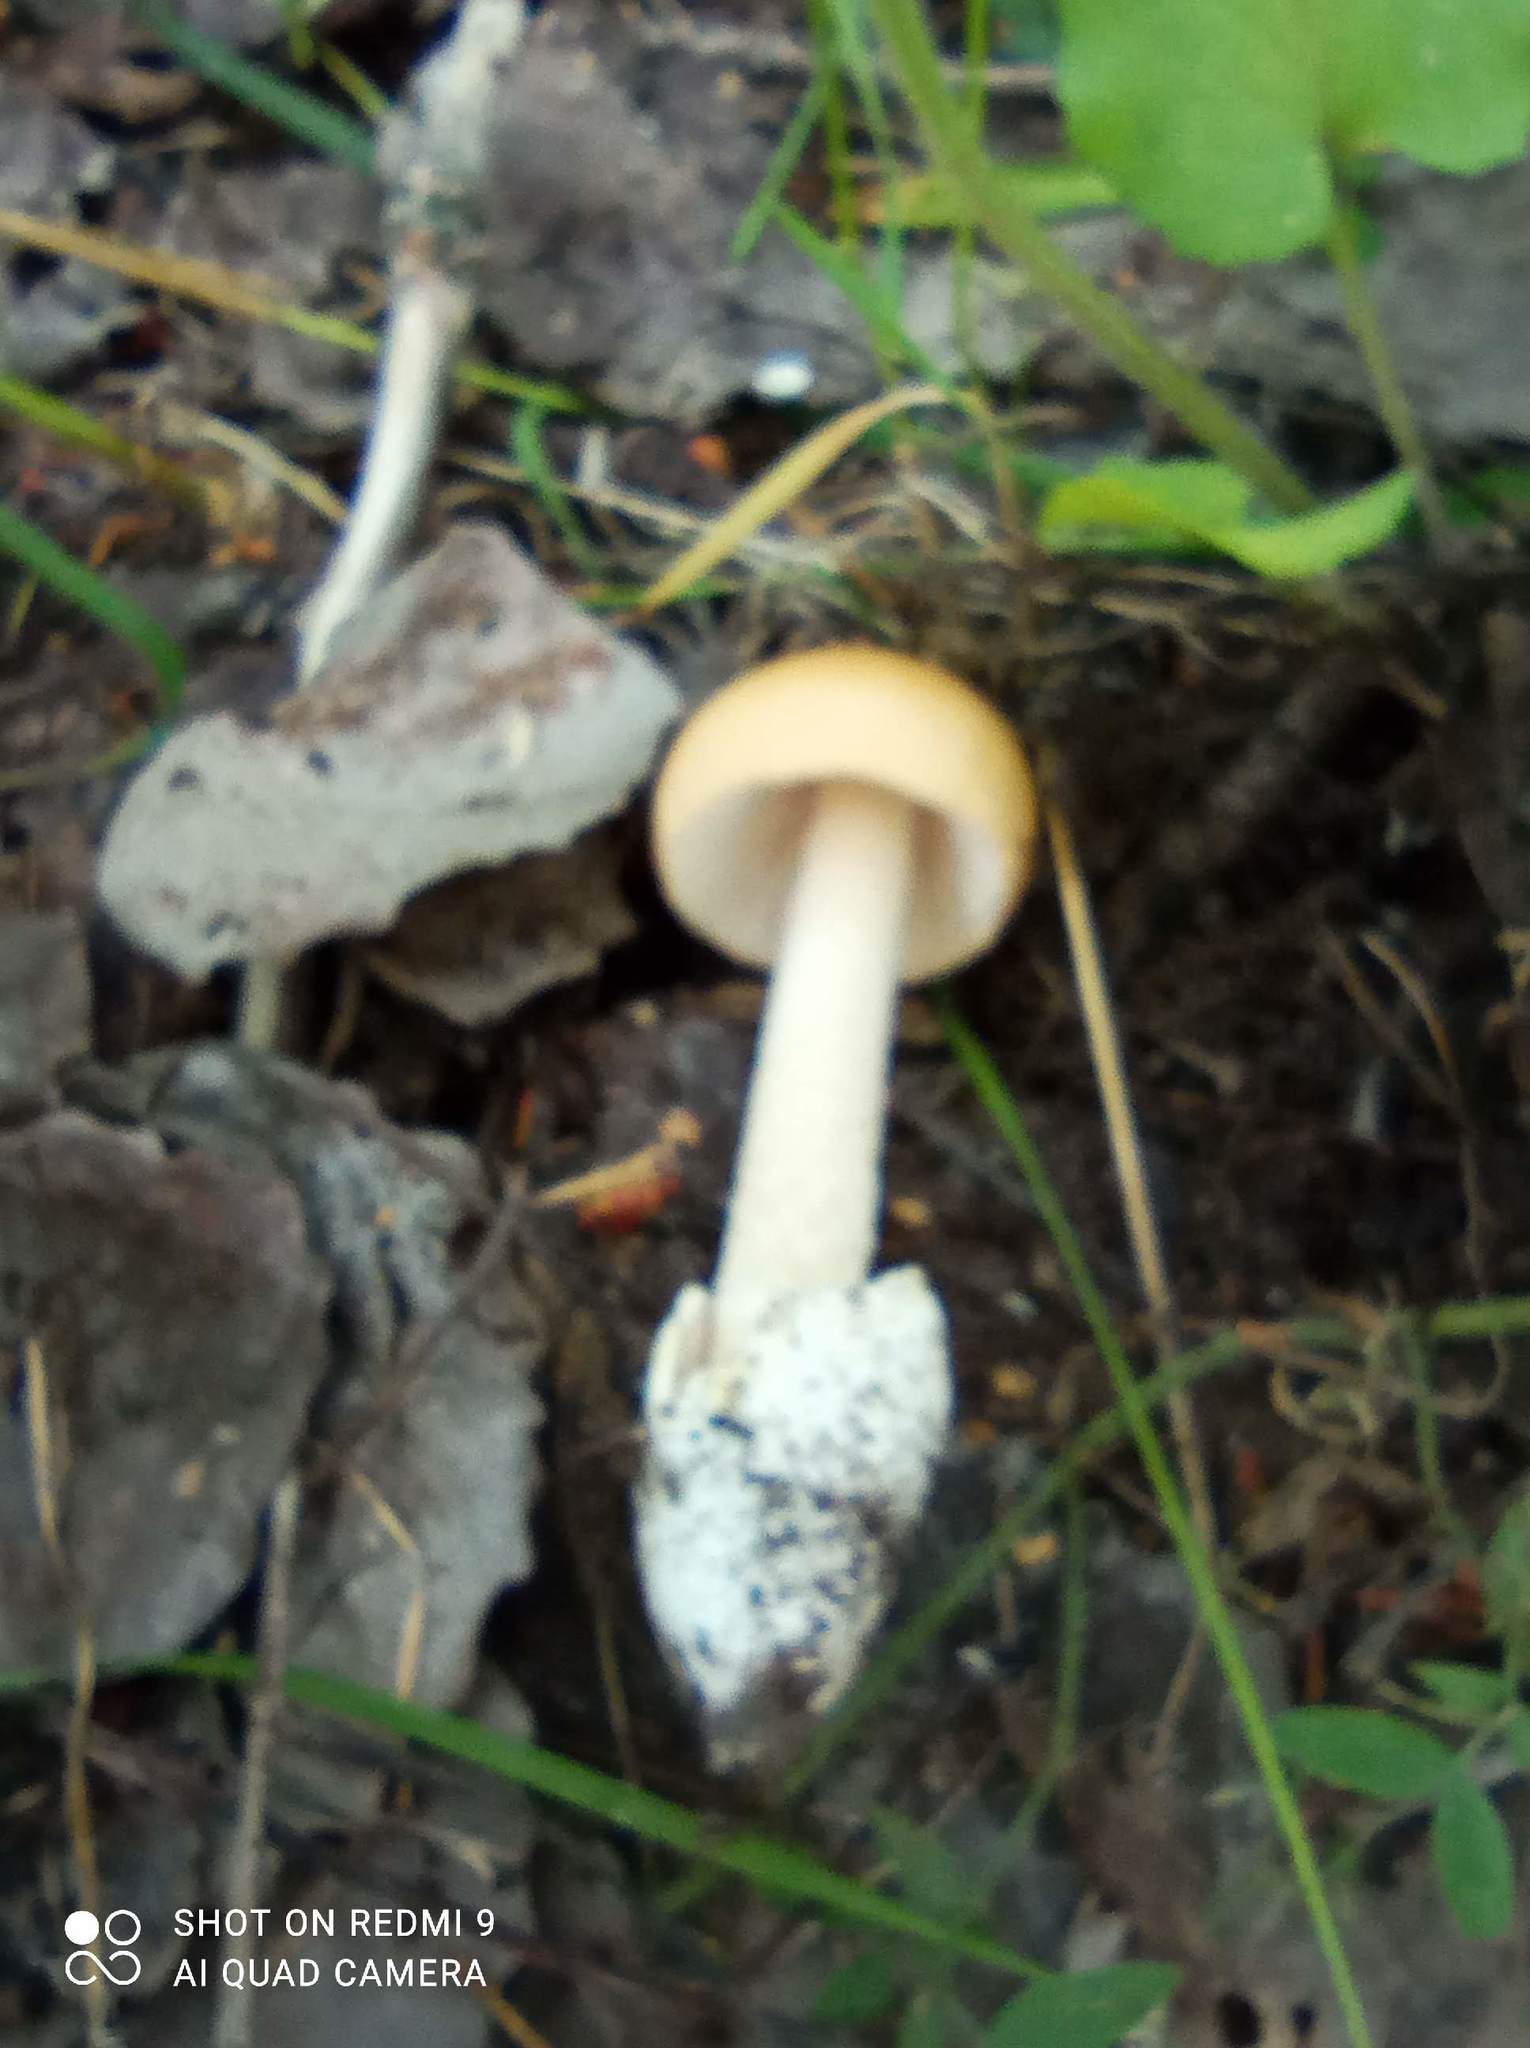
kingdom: Fungi
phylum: Basidiomycota
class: Agaricomycetes
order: Agaricales
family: Amanitaceae
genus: Amanita
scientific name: Amanita fulva
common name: Tawny grisette
